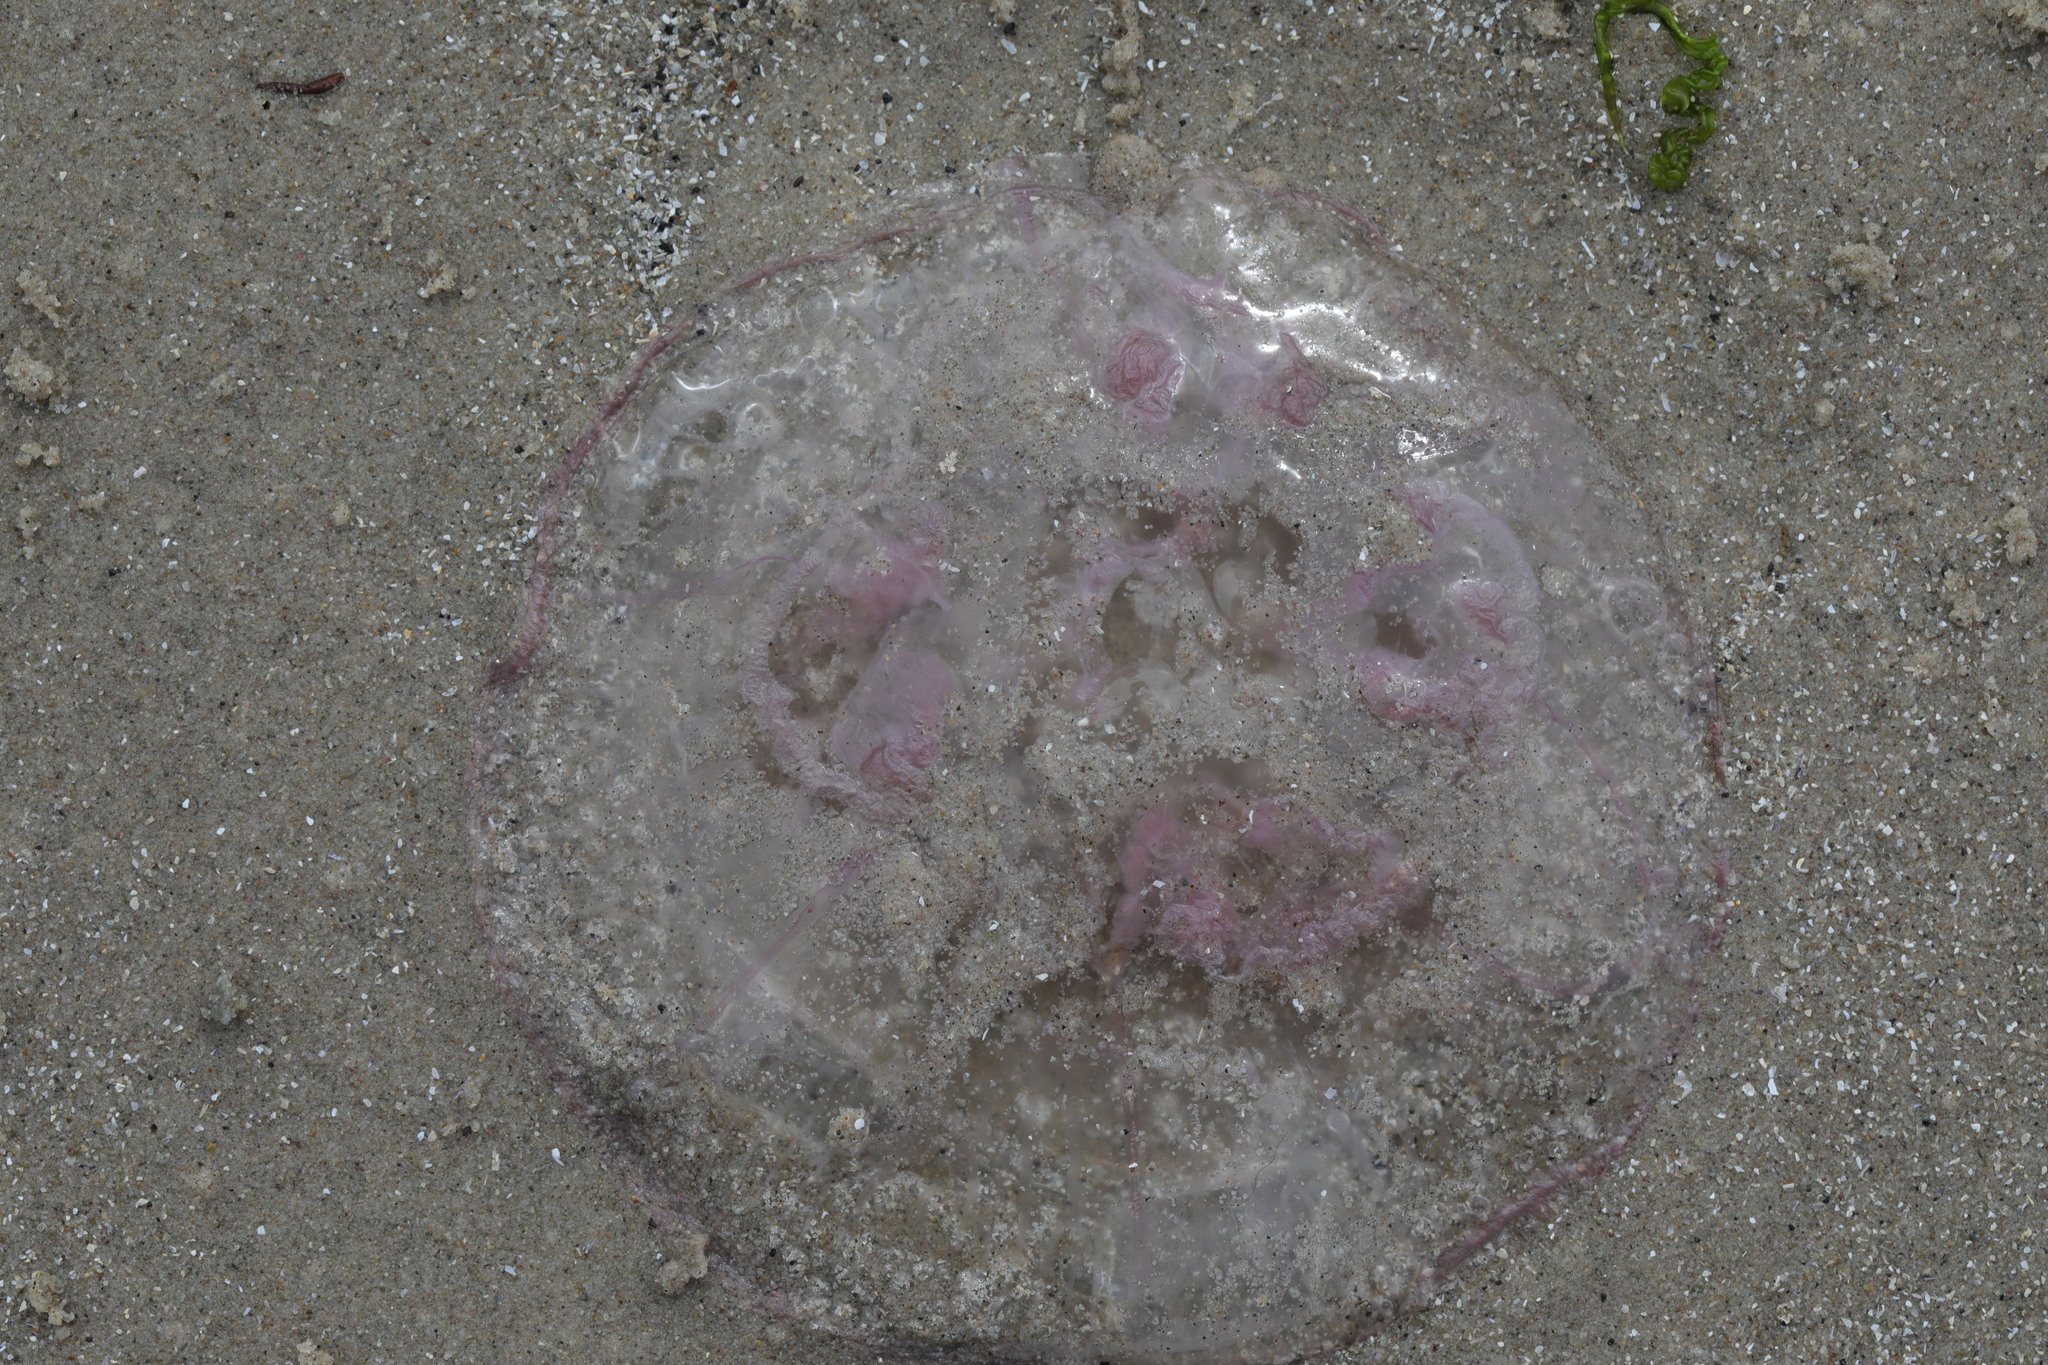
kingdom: Animalia
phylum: Cnidaria
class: Scyphozoa
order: Semaeostomeae
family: Ulmaridae
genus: Aurelia
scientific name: Aurelia aurita
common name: Moon jellyfish
